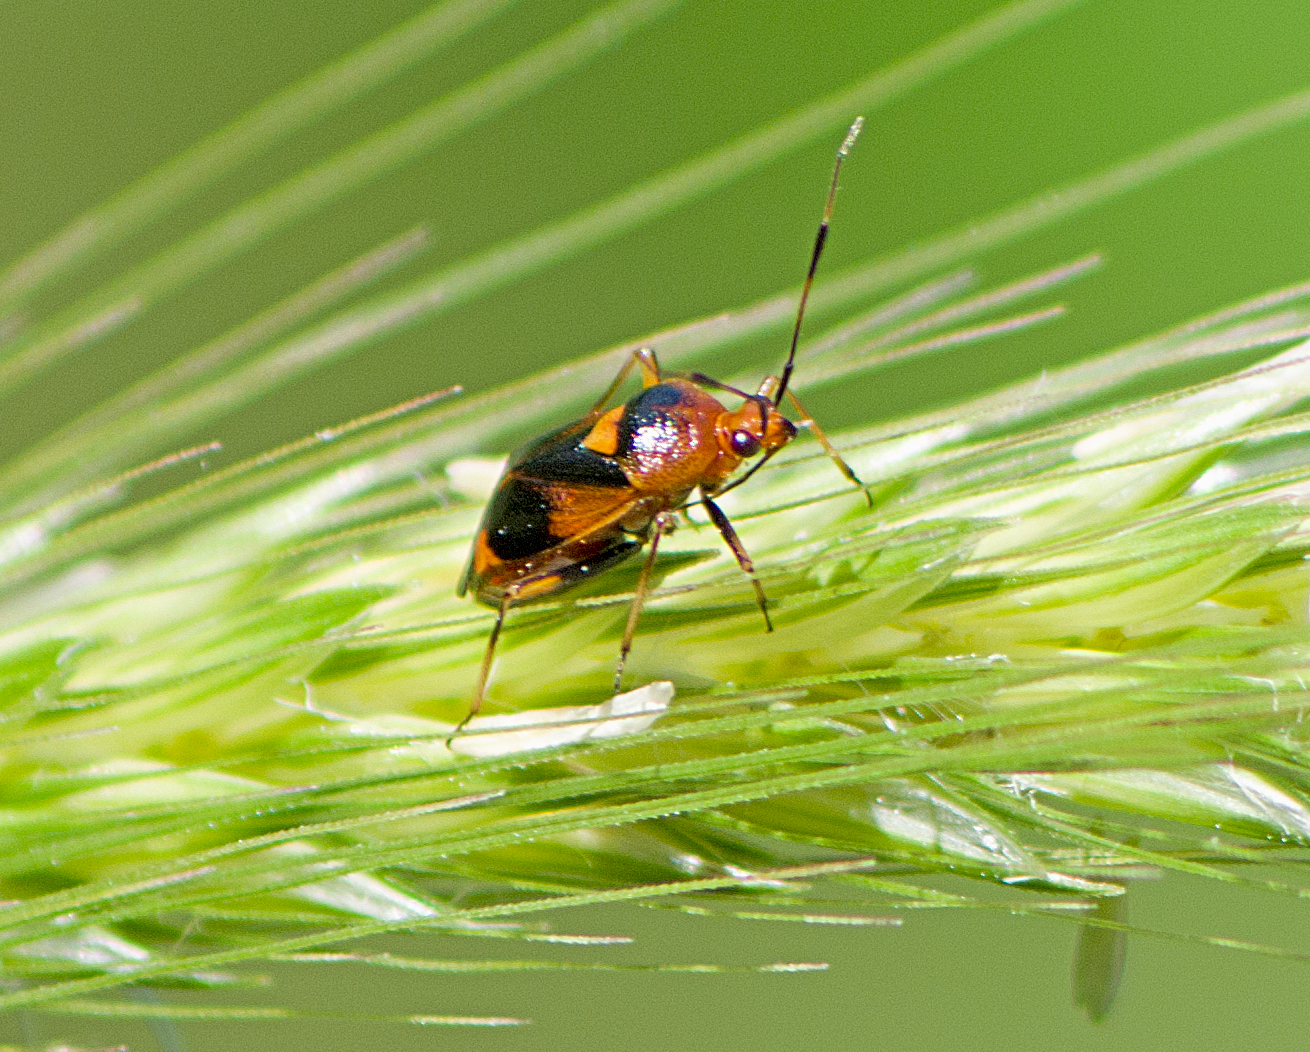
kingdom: Animalia
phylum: Arthropoda
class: Insecta
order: Hemiptera
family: Miridae
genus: Deraeocoris
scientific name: Deraeocoris ruber
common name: Plant bug
